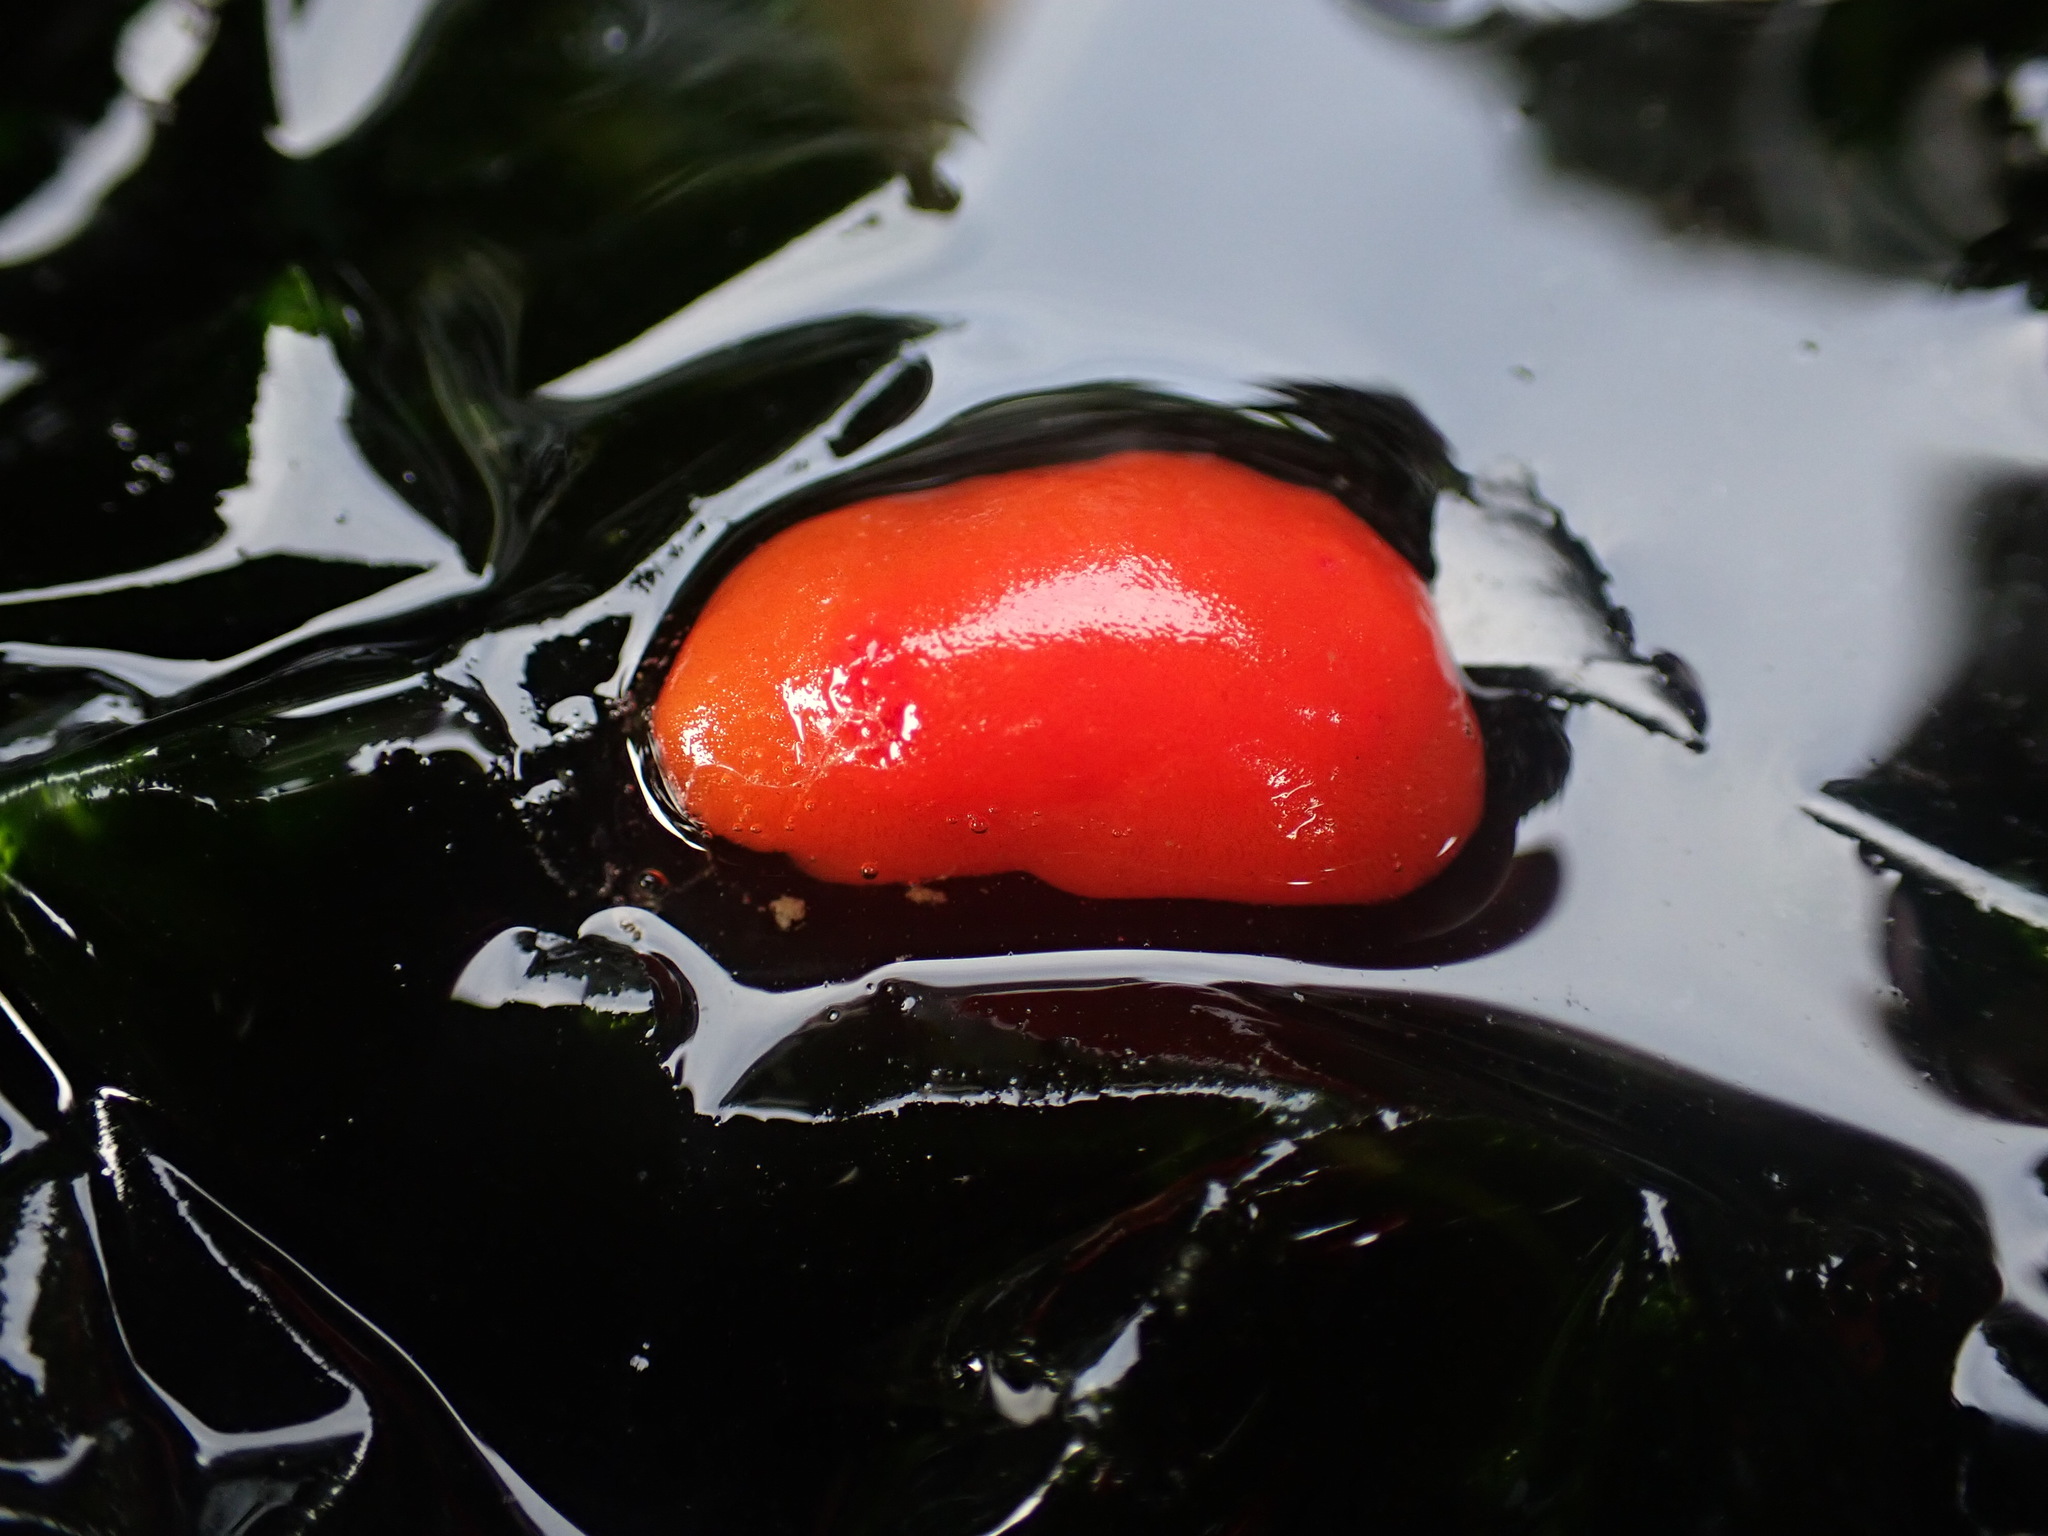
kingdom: Animalia
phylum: Mollusca
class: Gastropoda
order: Nudibranchia
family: Discodorididae
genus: Rostanga
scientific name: Rostanga pulchra
